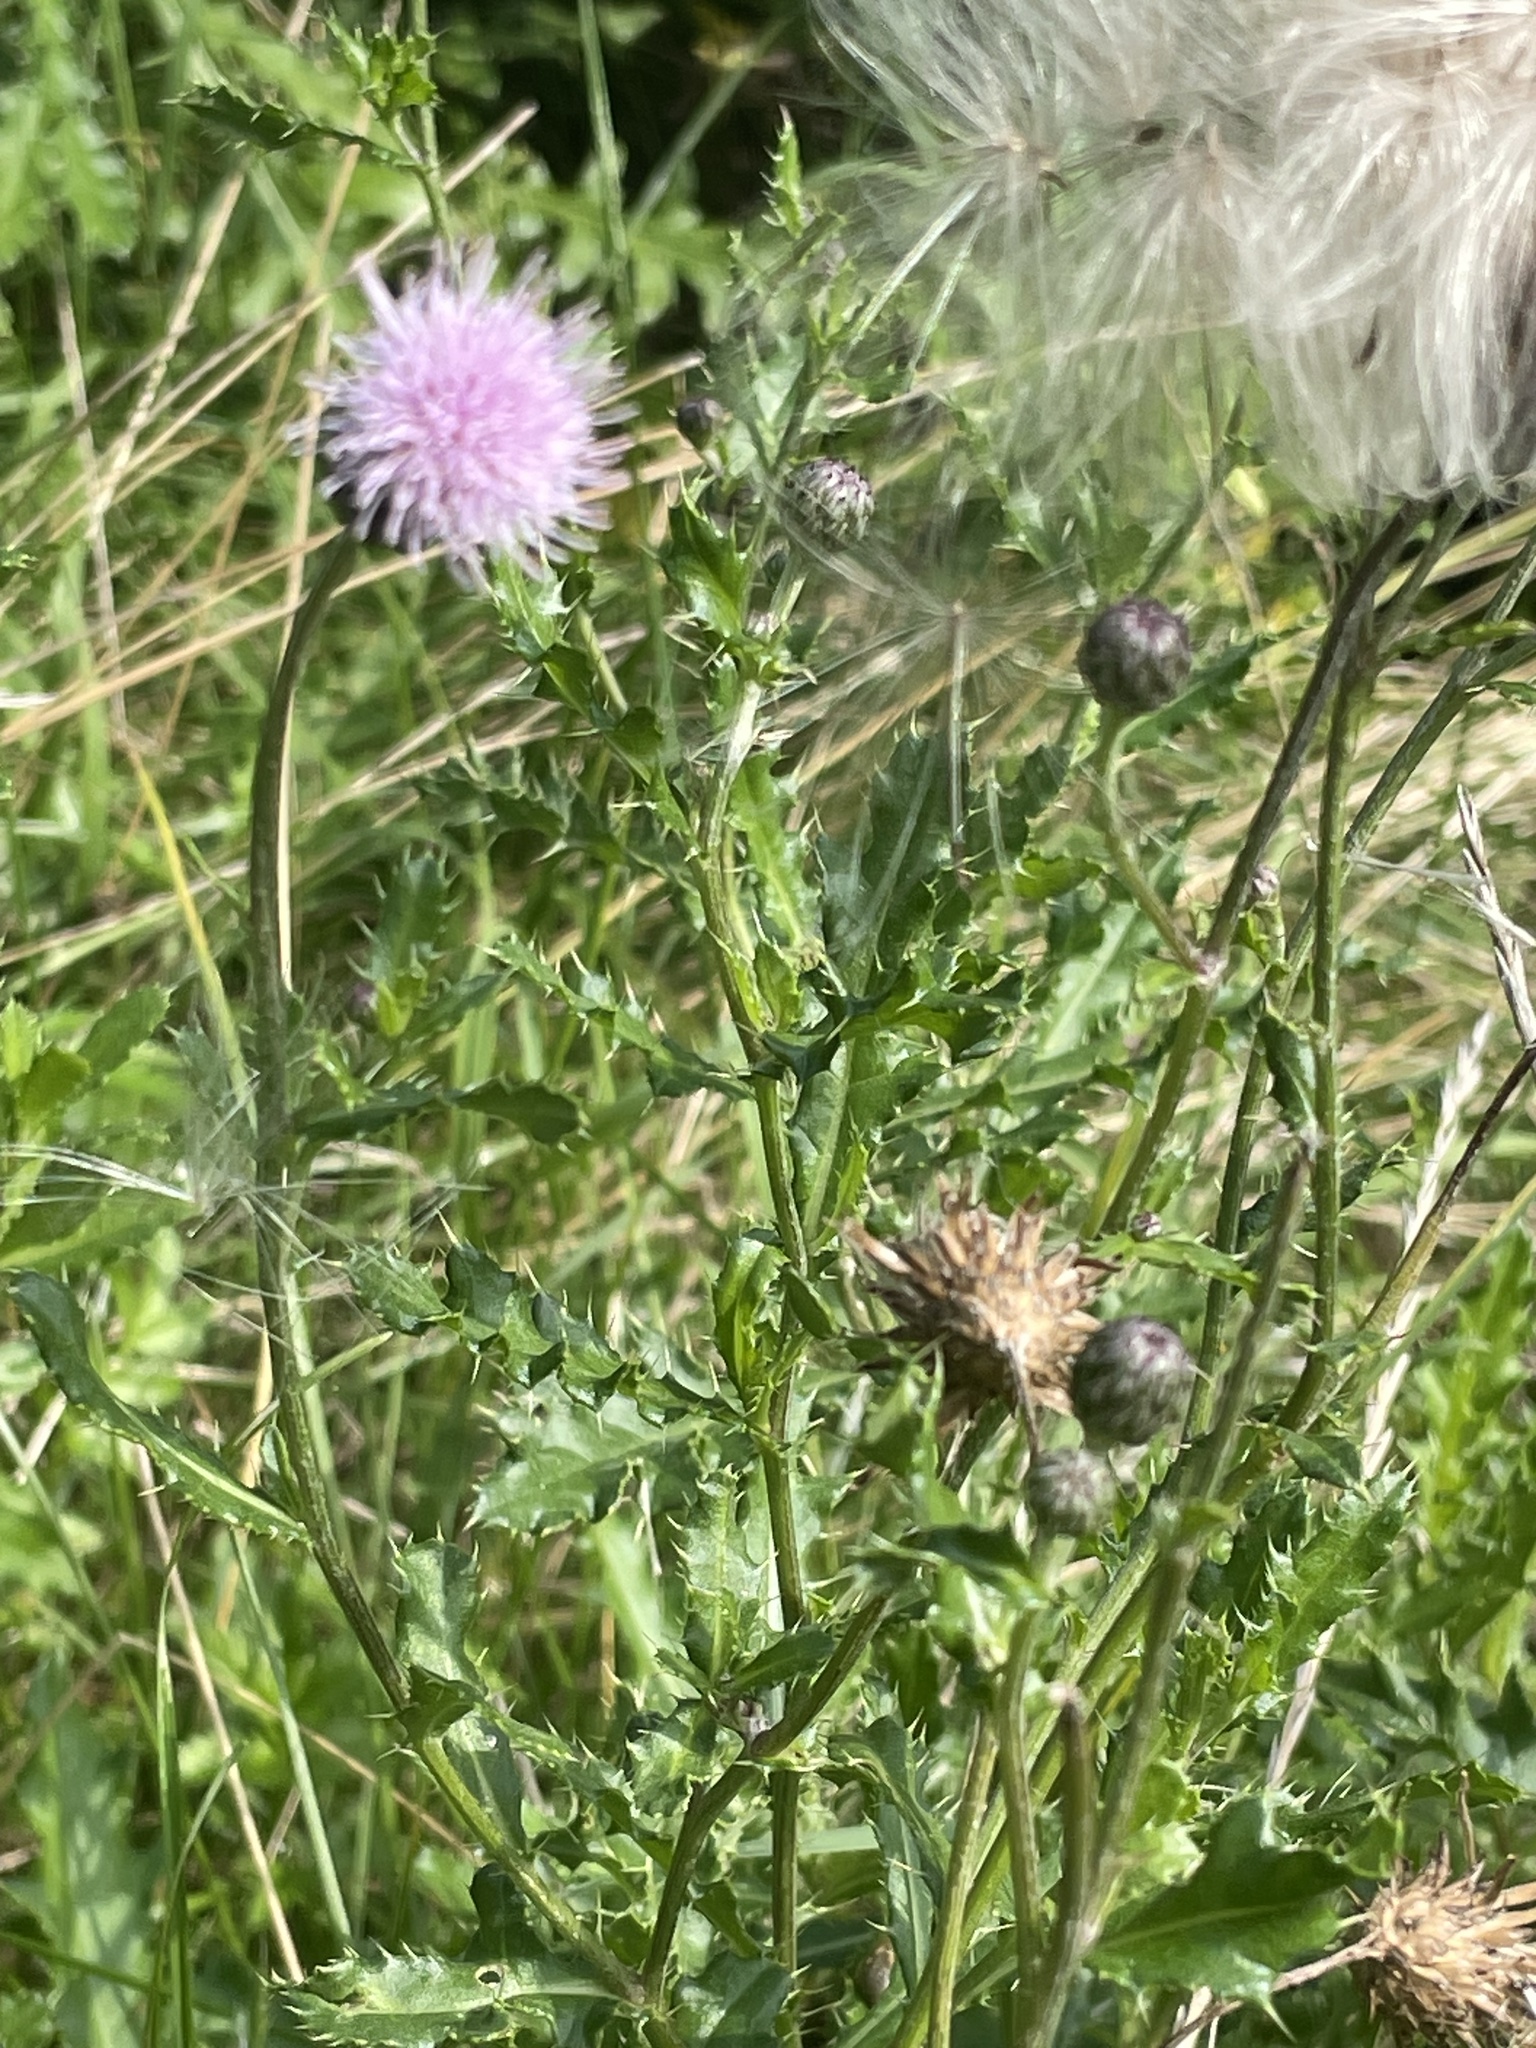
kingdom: Plantae
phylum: Tracheophyta
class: Magnoliopsida
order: Asterales
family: Asteraceae
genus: Cirsium
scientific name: Cirsium arvense
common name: Creeping thistle
